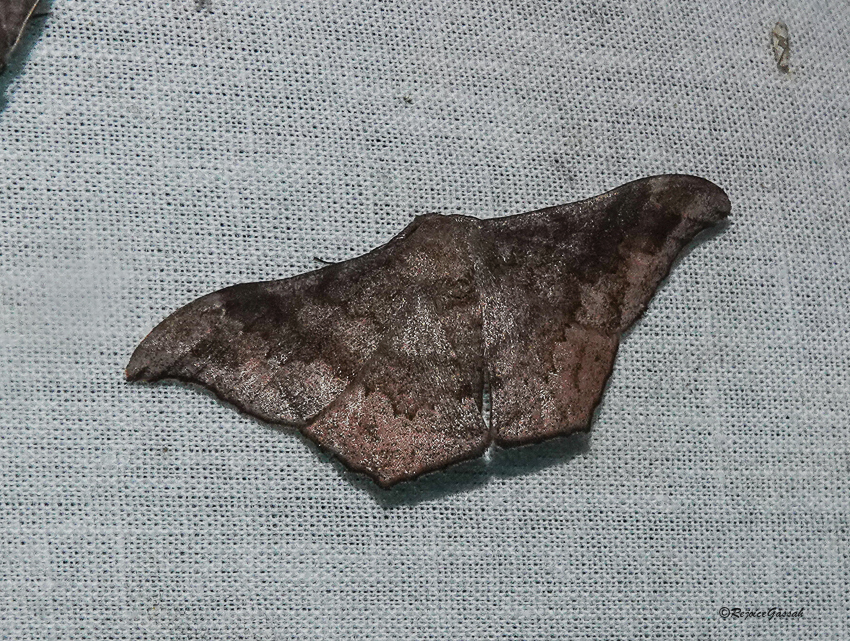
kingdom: Animalia
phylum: Arthropoda
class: Insecta
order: Lepidoptera
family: Geometridae
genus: Hyposidra
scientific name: Hyposidra talaca
